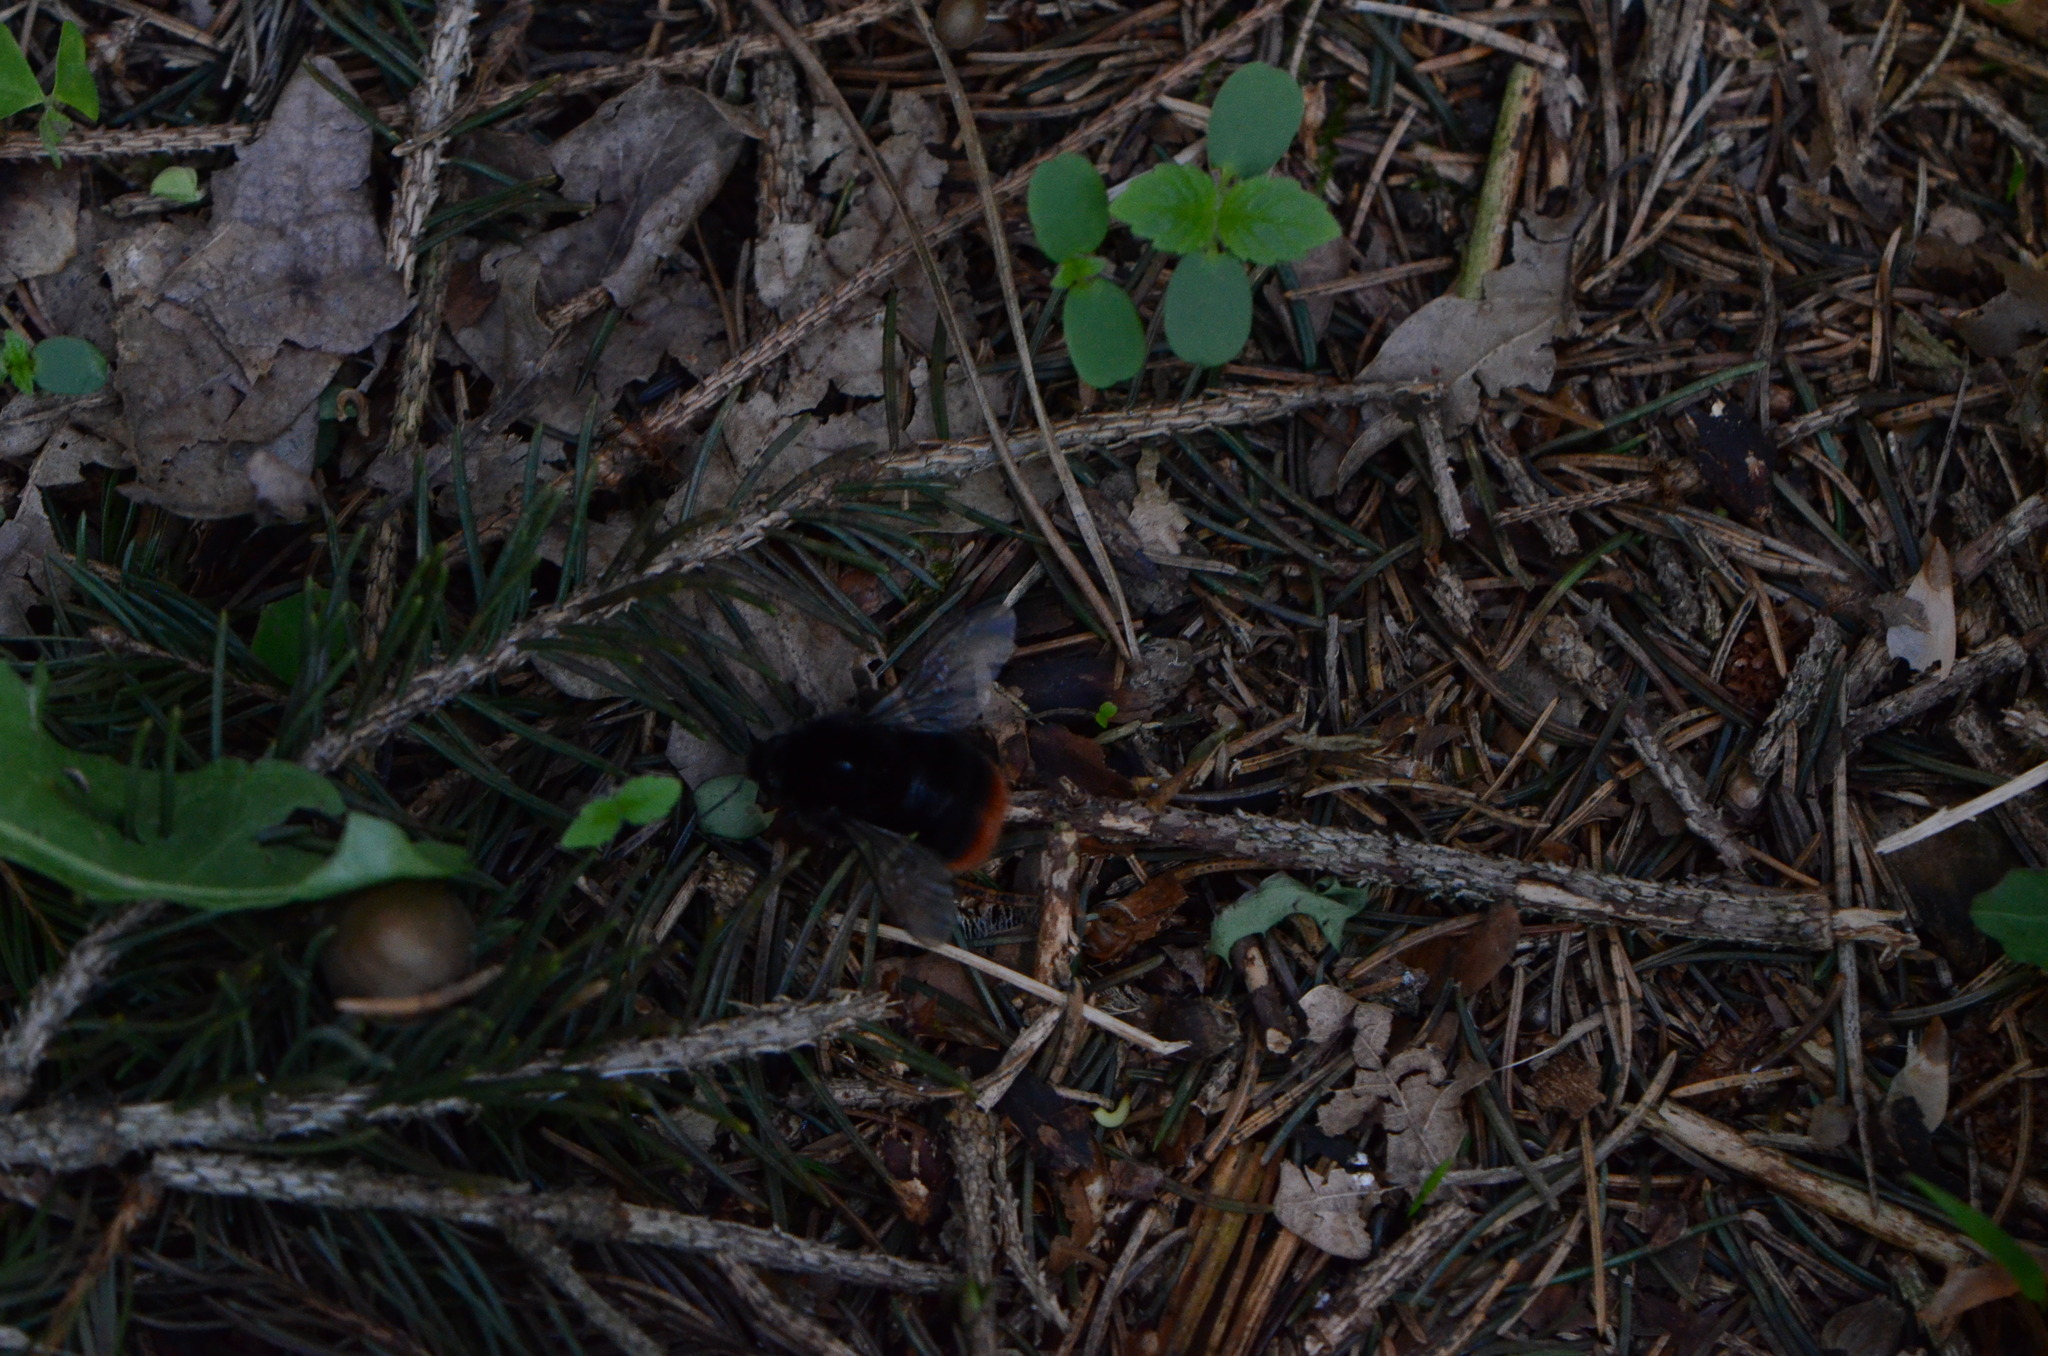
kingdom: Animalia
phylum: Arthropoda
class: Insecta
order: Hymenoptera
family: Apidae
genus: Bombus
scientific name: Bombus lapidarius
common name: Large red-tailed humble-bee
